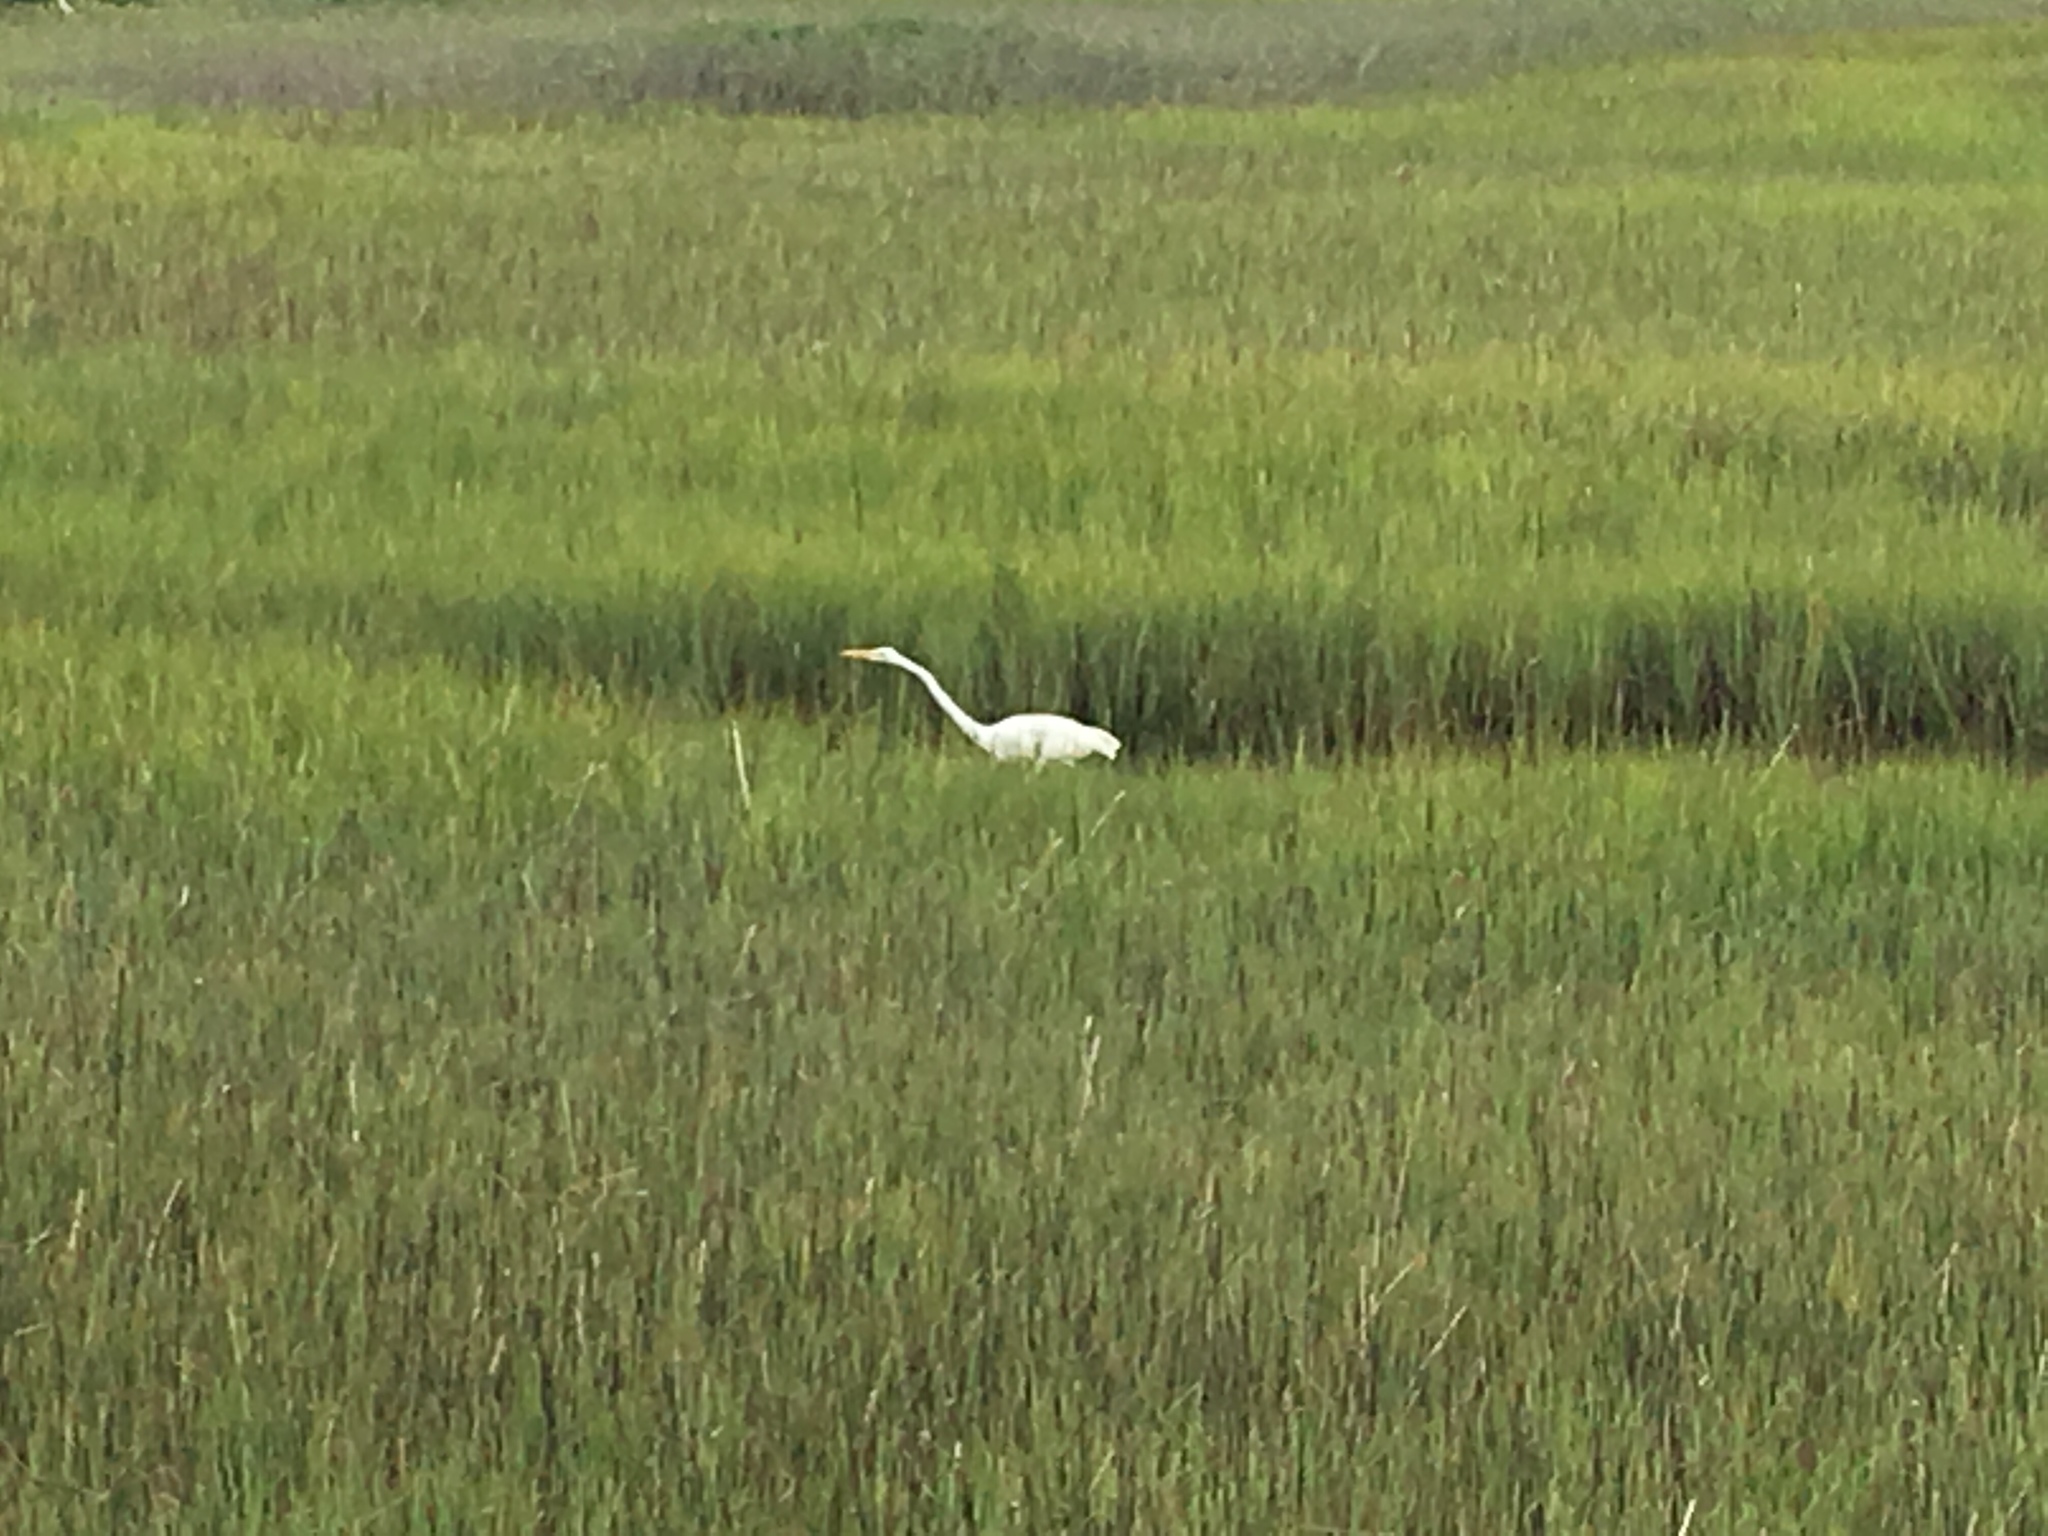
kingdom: Animalia
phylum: Chordata
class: Aves
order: Pelecaniformes
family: Ardeidae
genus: Ardea
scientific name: Ardea alba
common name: Great egret
